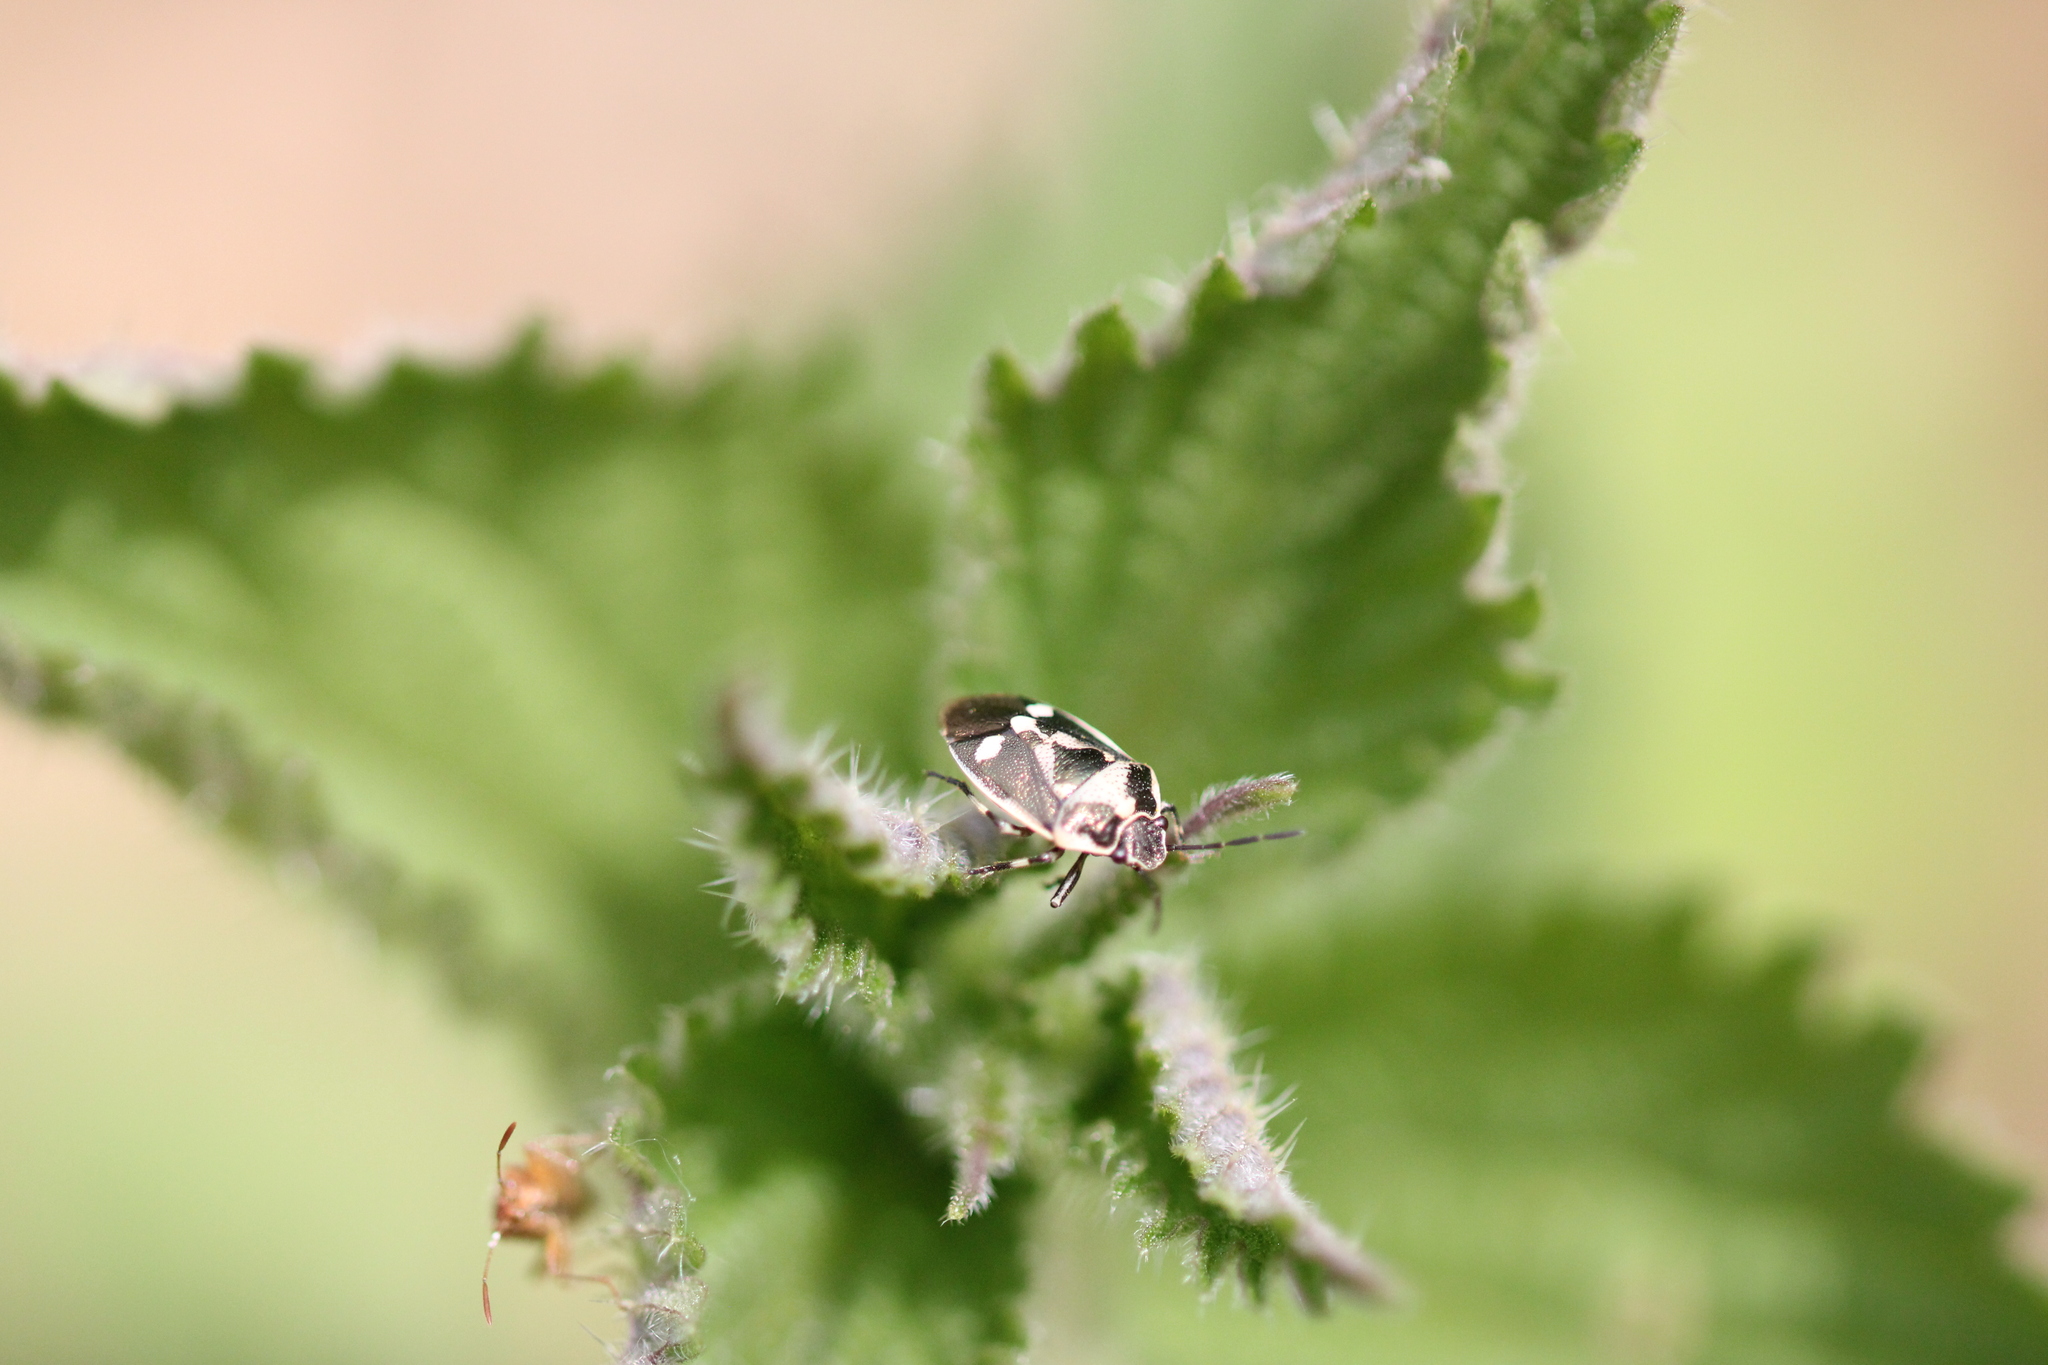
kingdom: Animalia
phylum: Arthropoda
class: Insecta
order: Hemiptera
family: Pentatomidae
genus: Eurydema
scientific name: Eurydema oleracea
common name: Cabbage bug
